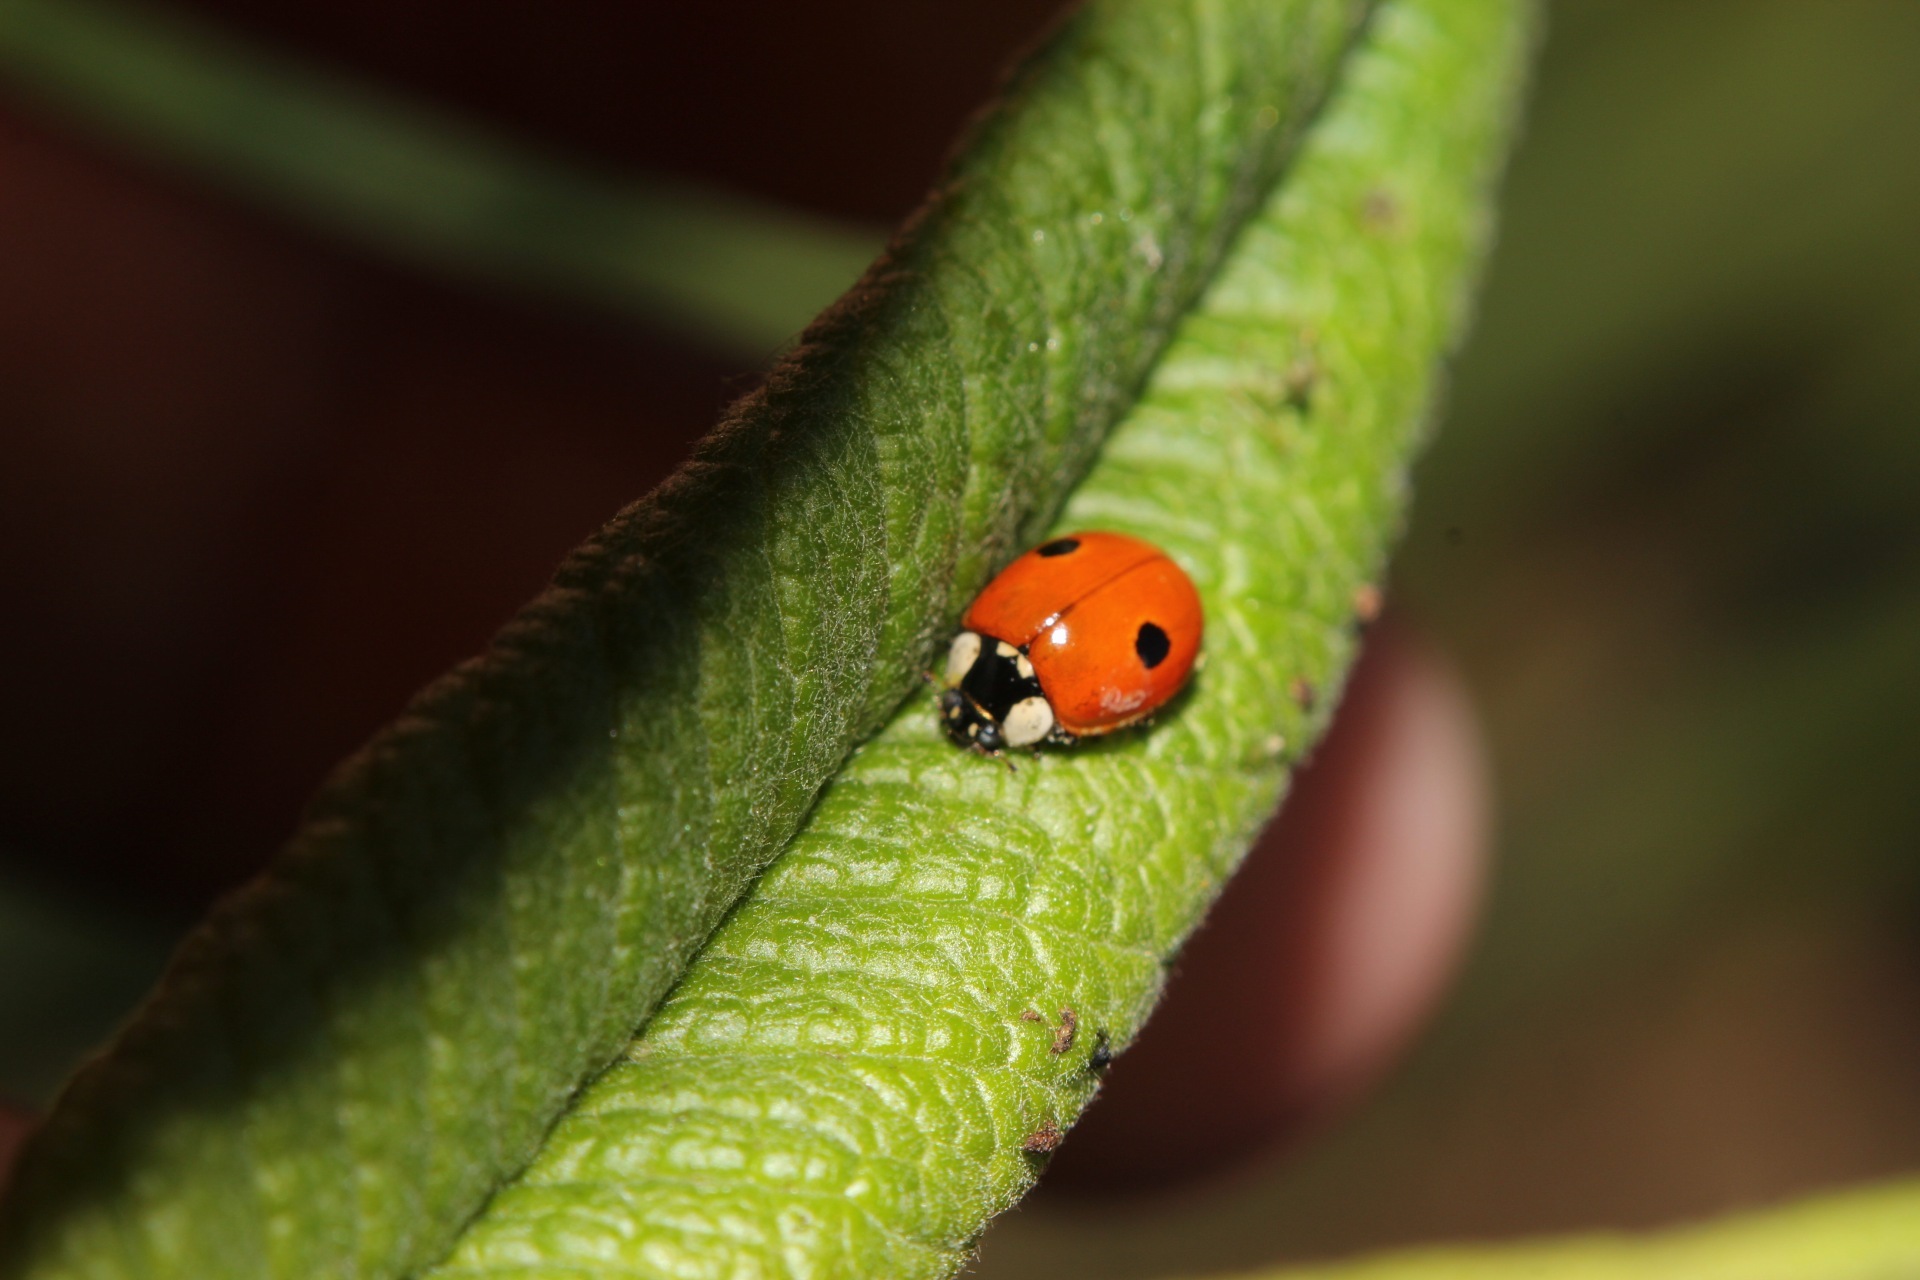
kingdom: Animalia
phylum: Arthropoda
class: Insecta
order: Coleoptera
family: Coccinellidae
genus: Adalia
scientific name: Adalia bipunctata
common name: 2-spot ladybird
